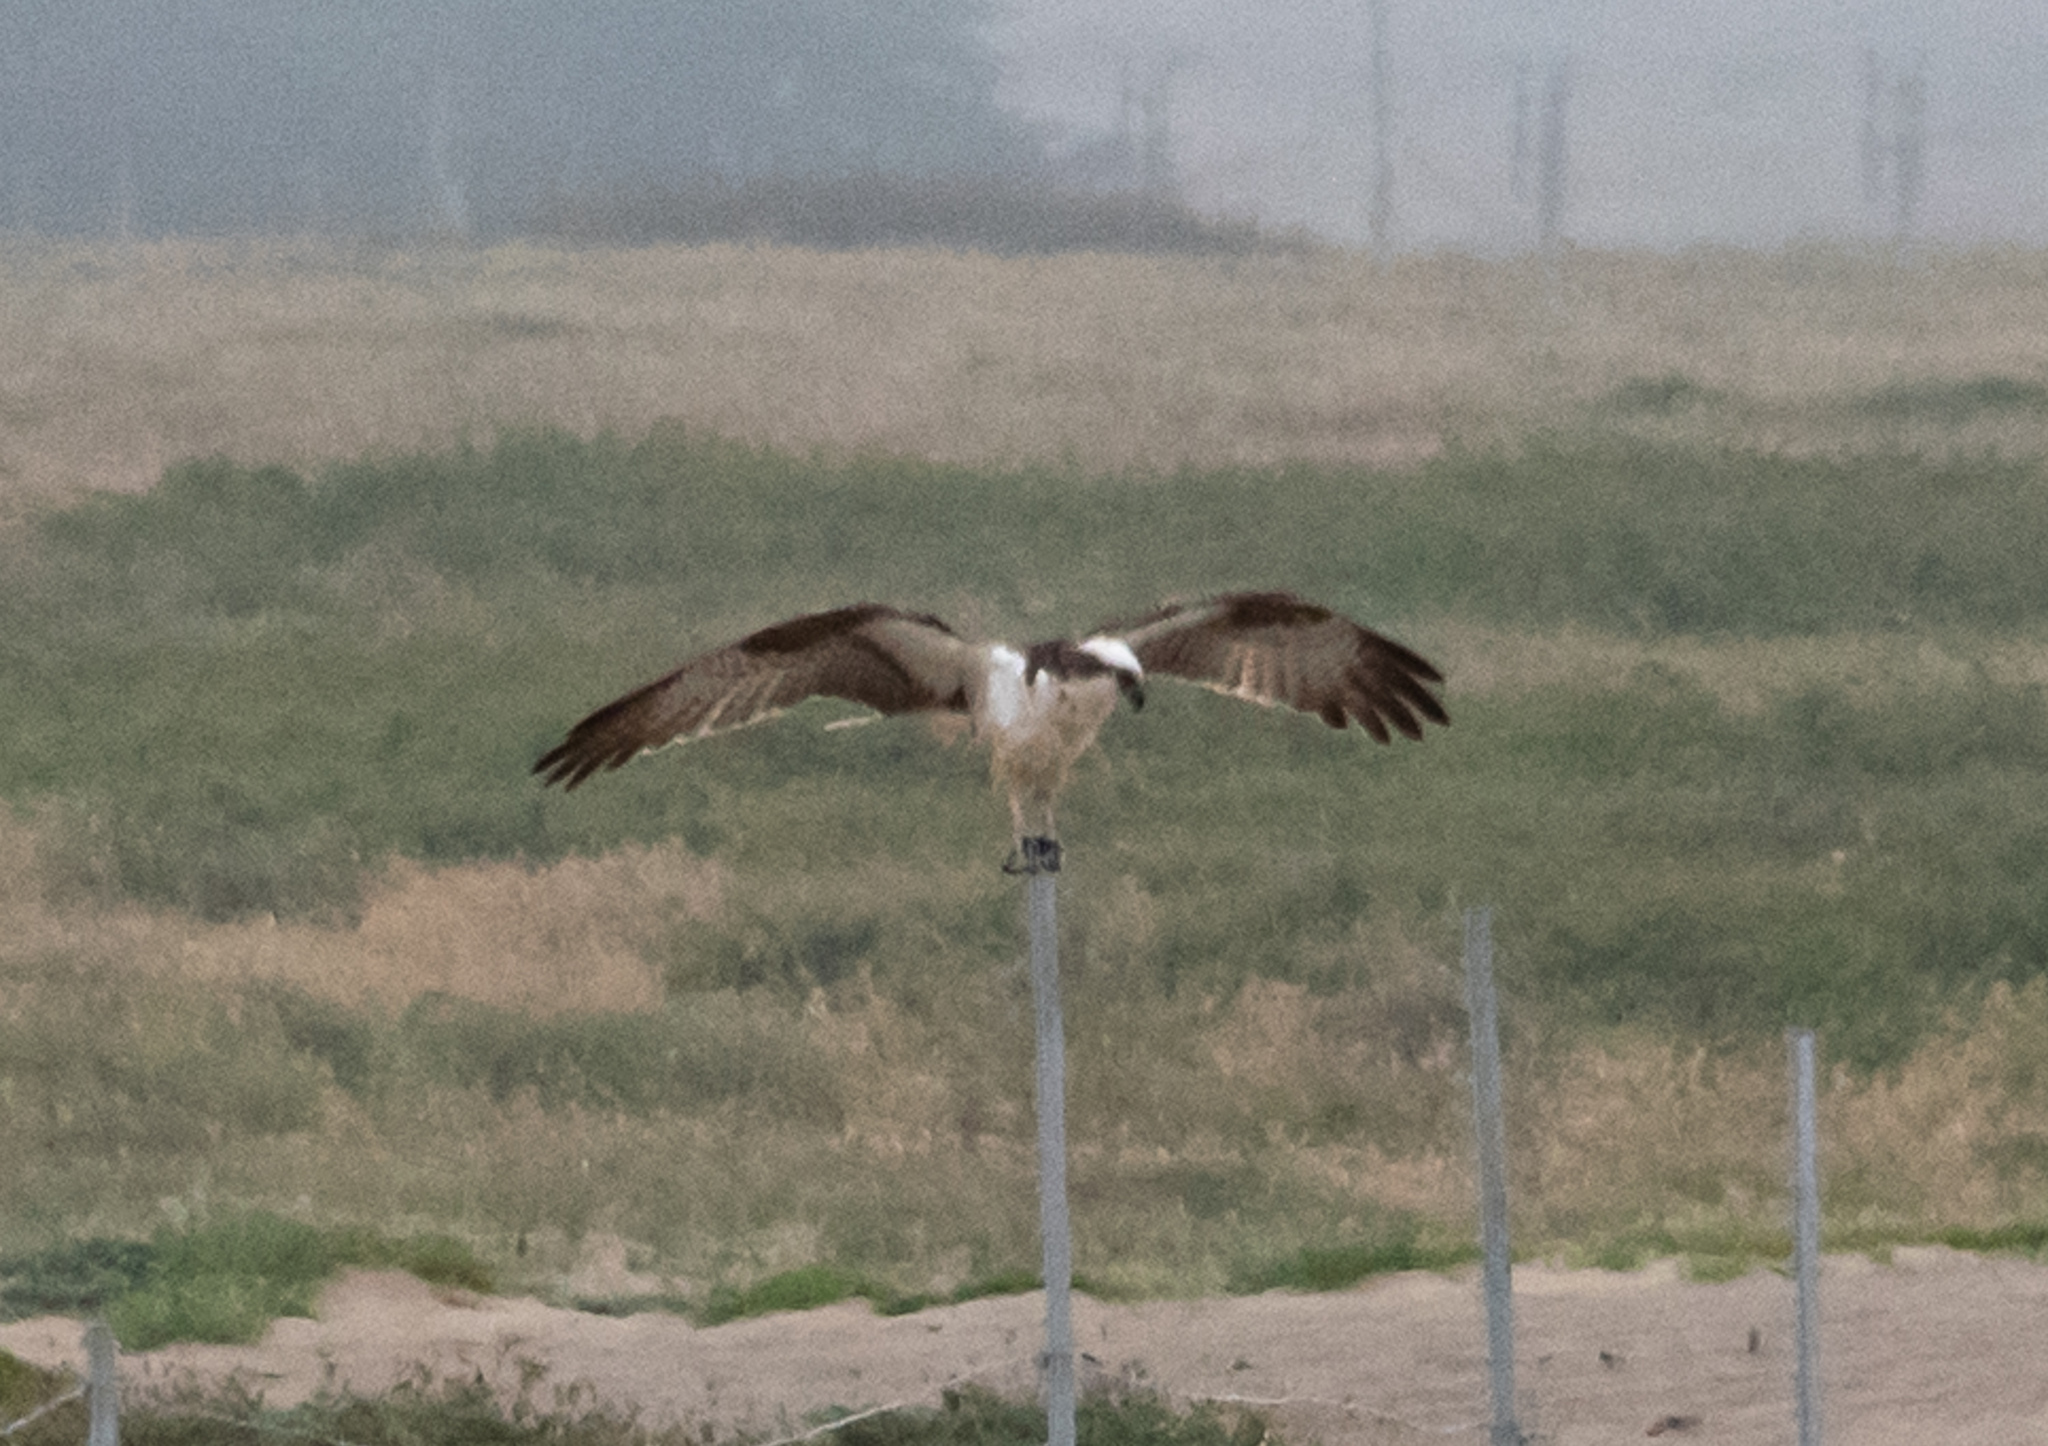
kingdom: Animalia
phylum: Chordata
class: Aves
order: Accipitriformes
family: Pandionidae
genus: Pandion
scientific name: Pandion haliaetus
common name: Osprey
